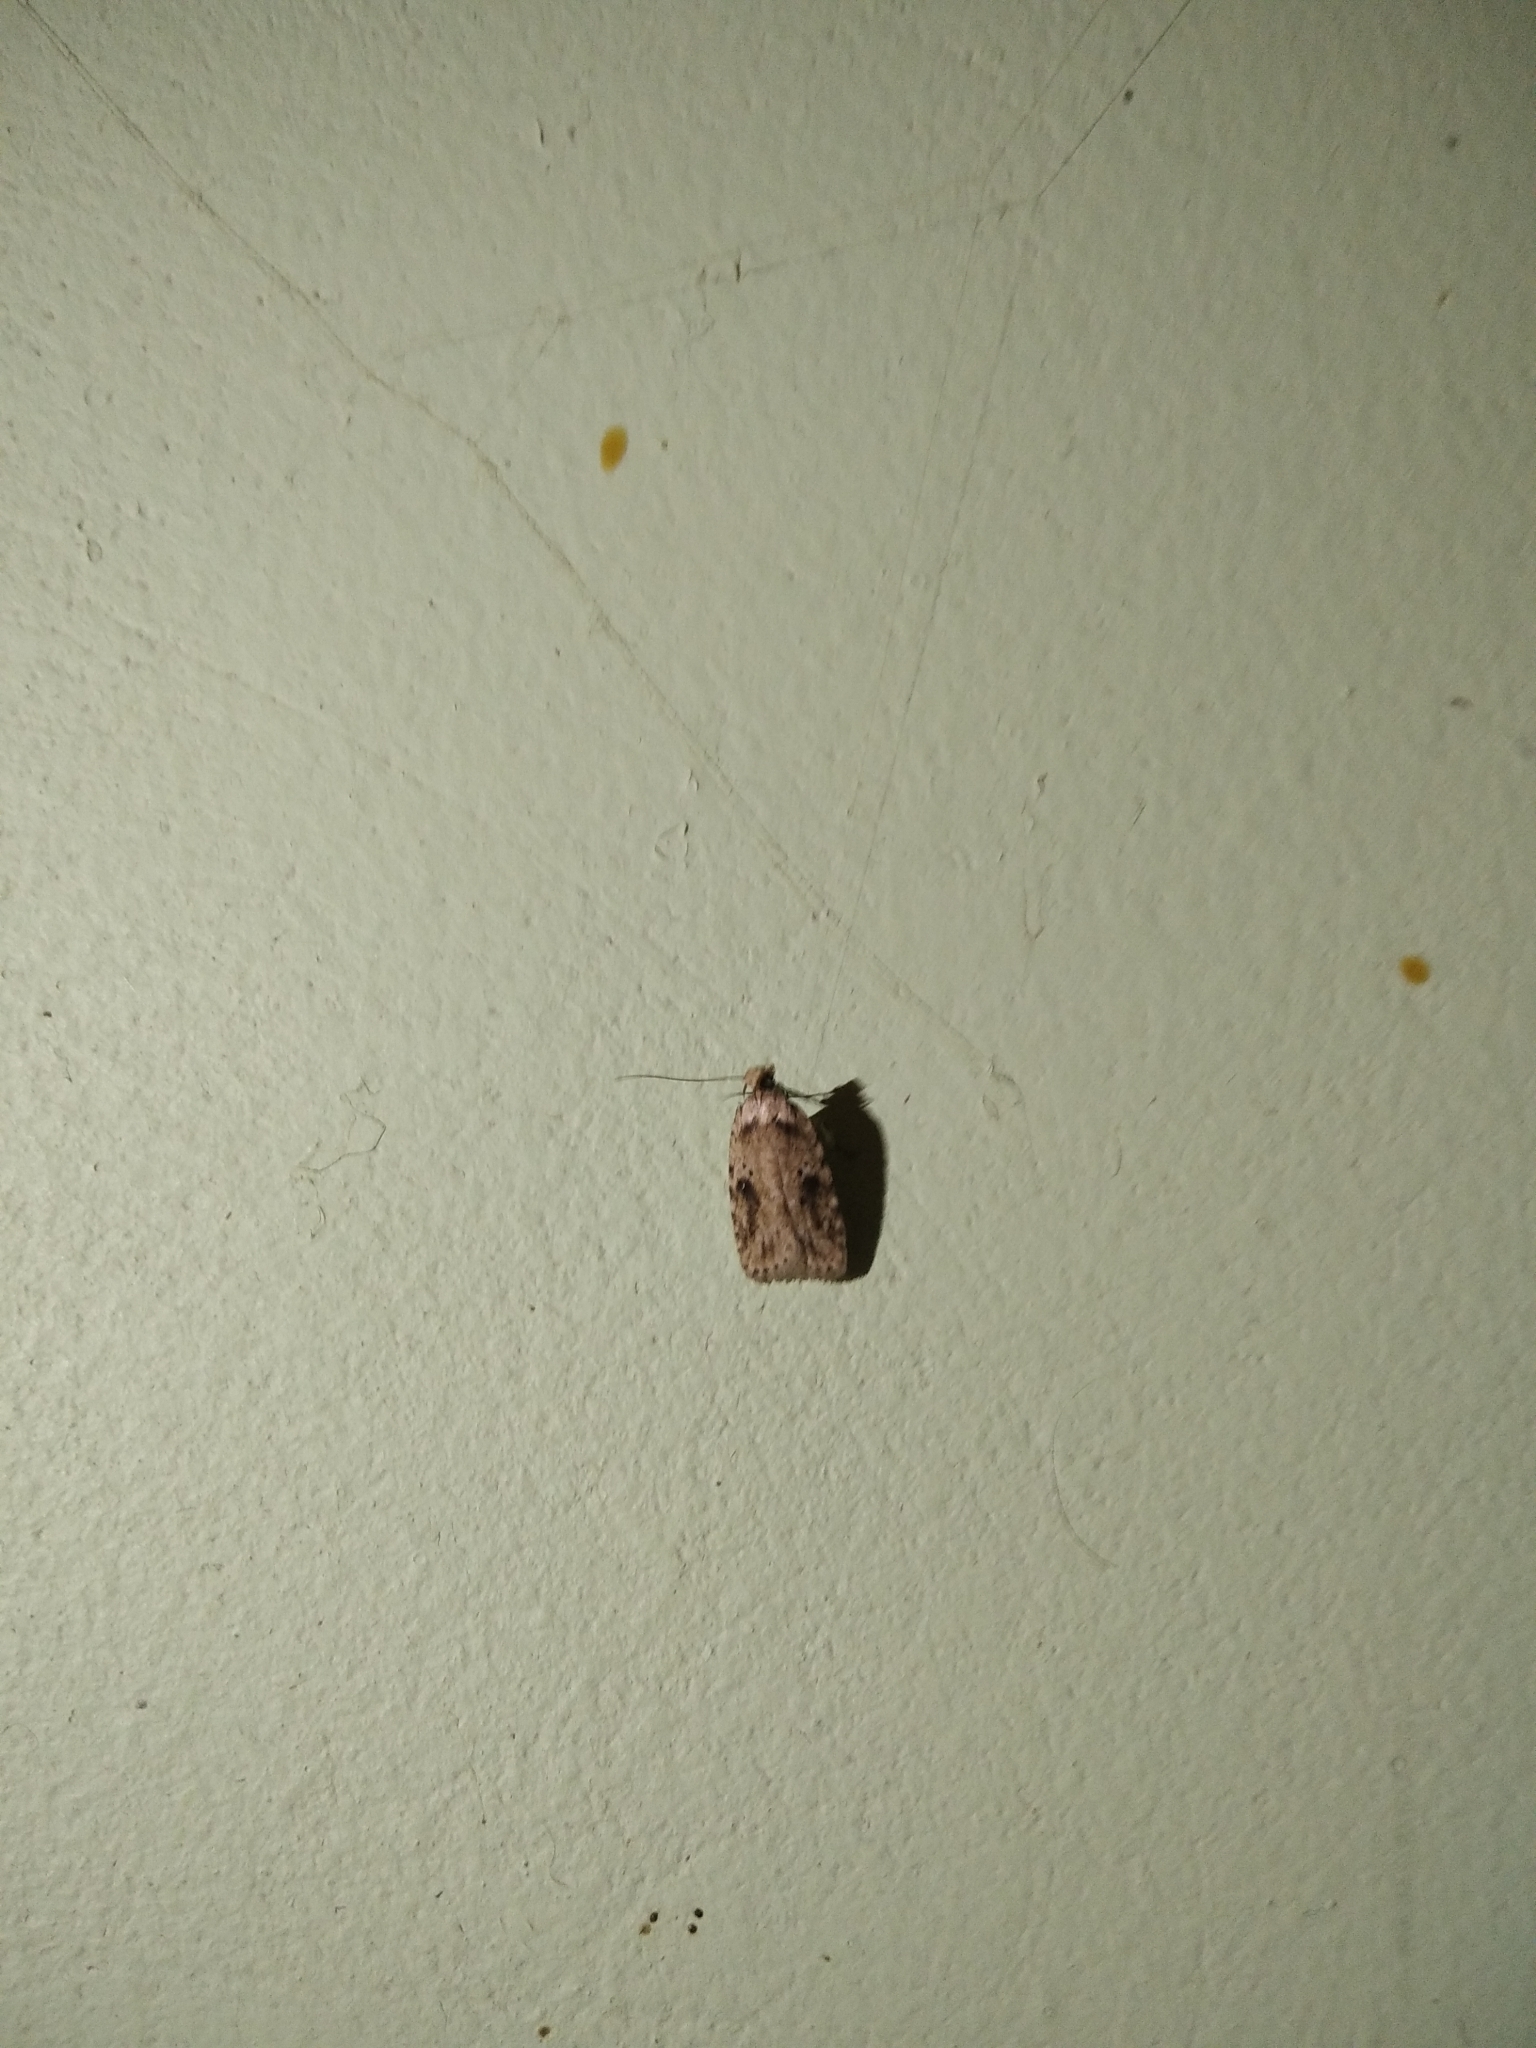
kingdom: Animalia
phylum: Arthropoda
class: Insecta
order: Lepidoptera
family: Depressariidae
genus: Agonopterix
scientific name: Agonopterix arenella
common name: Brindled flat-body
